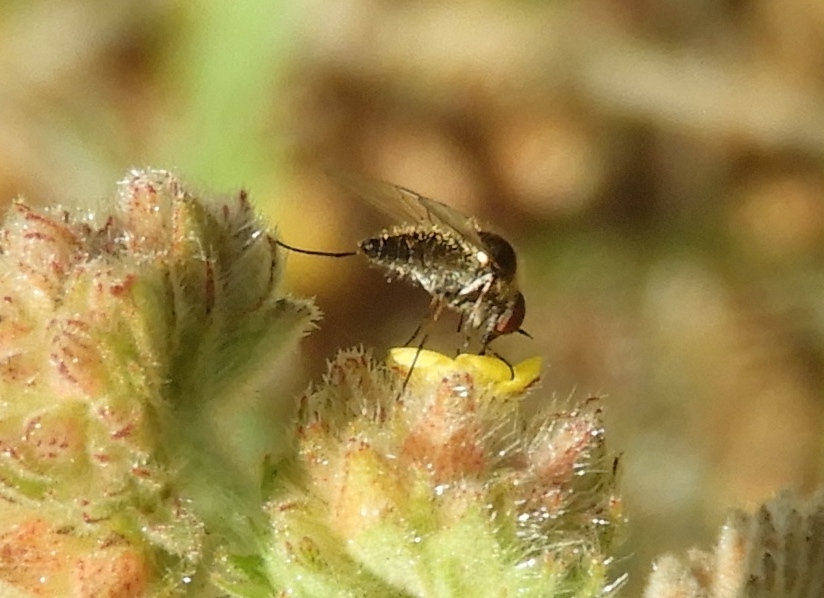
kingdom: Animalia
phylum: Arthropoda
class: Insecta
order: Diptera
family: Bombyliidae
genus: Geron
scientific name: Geron
